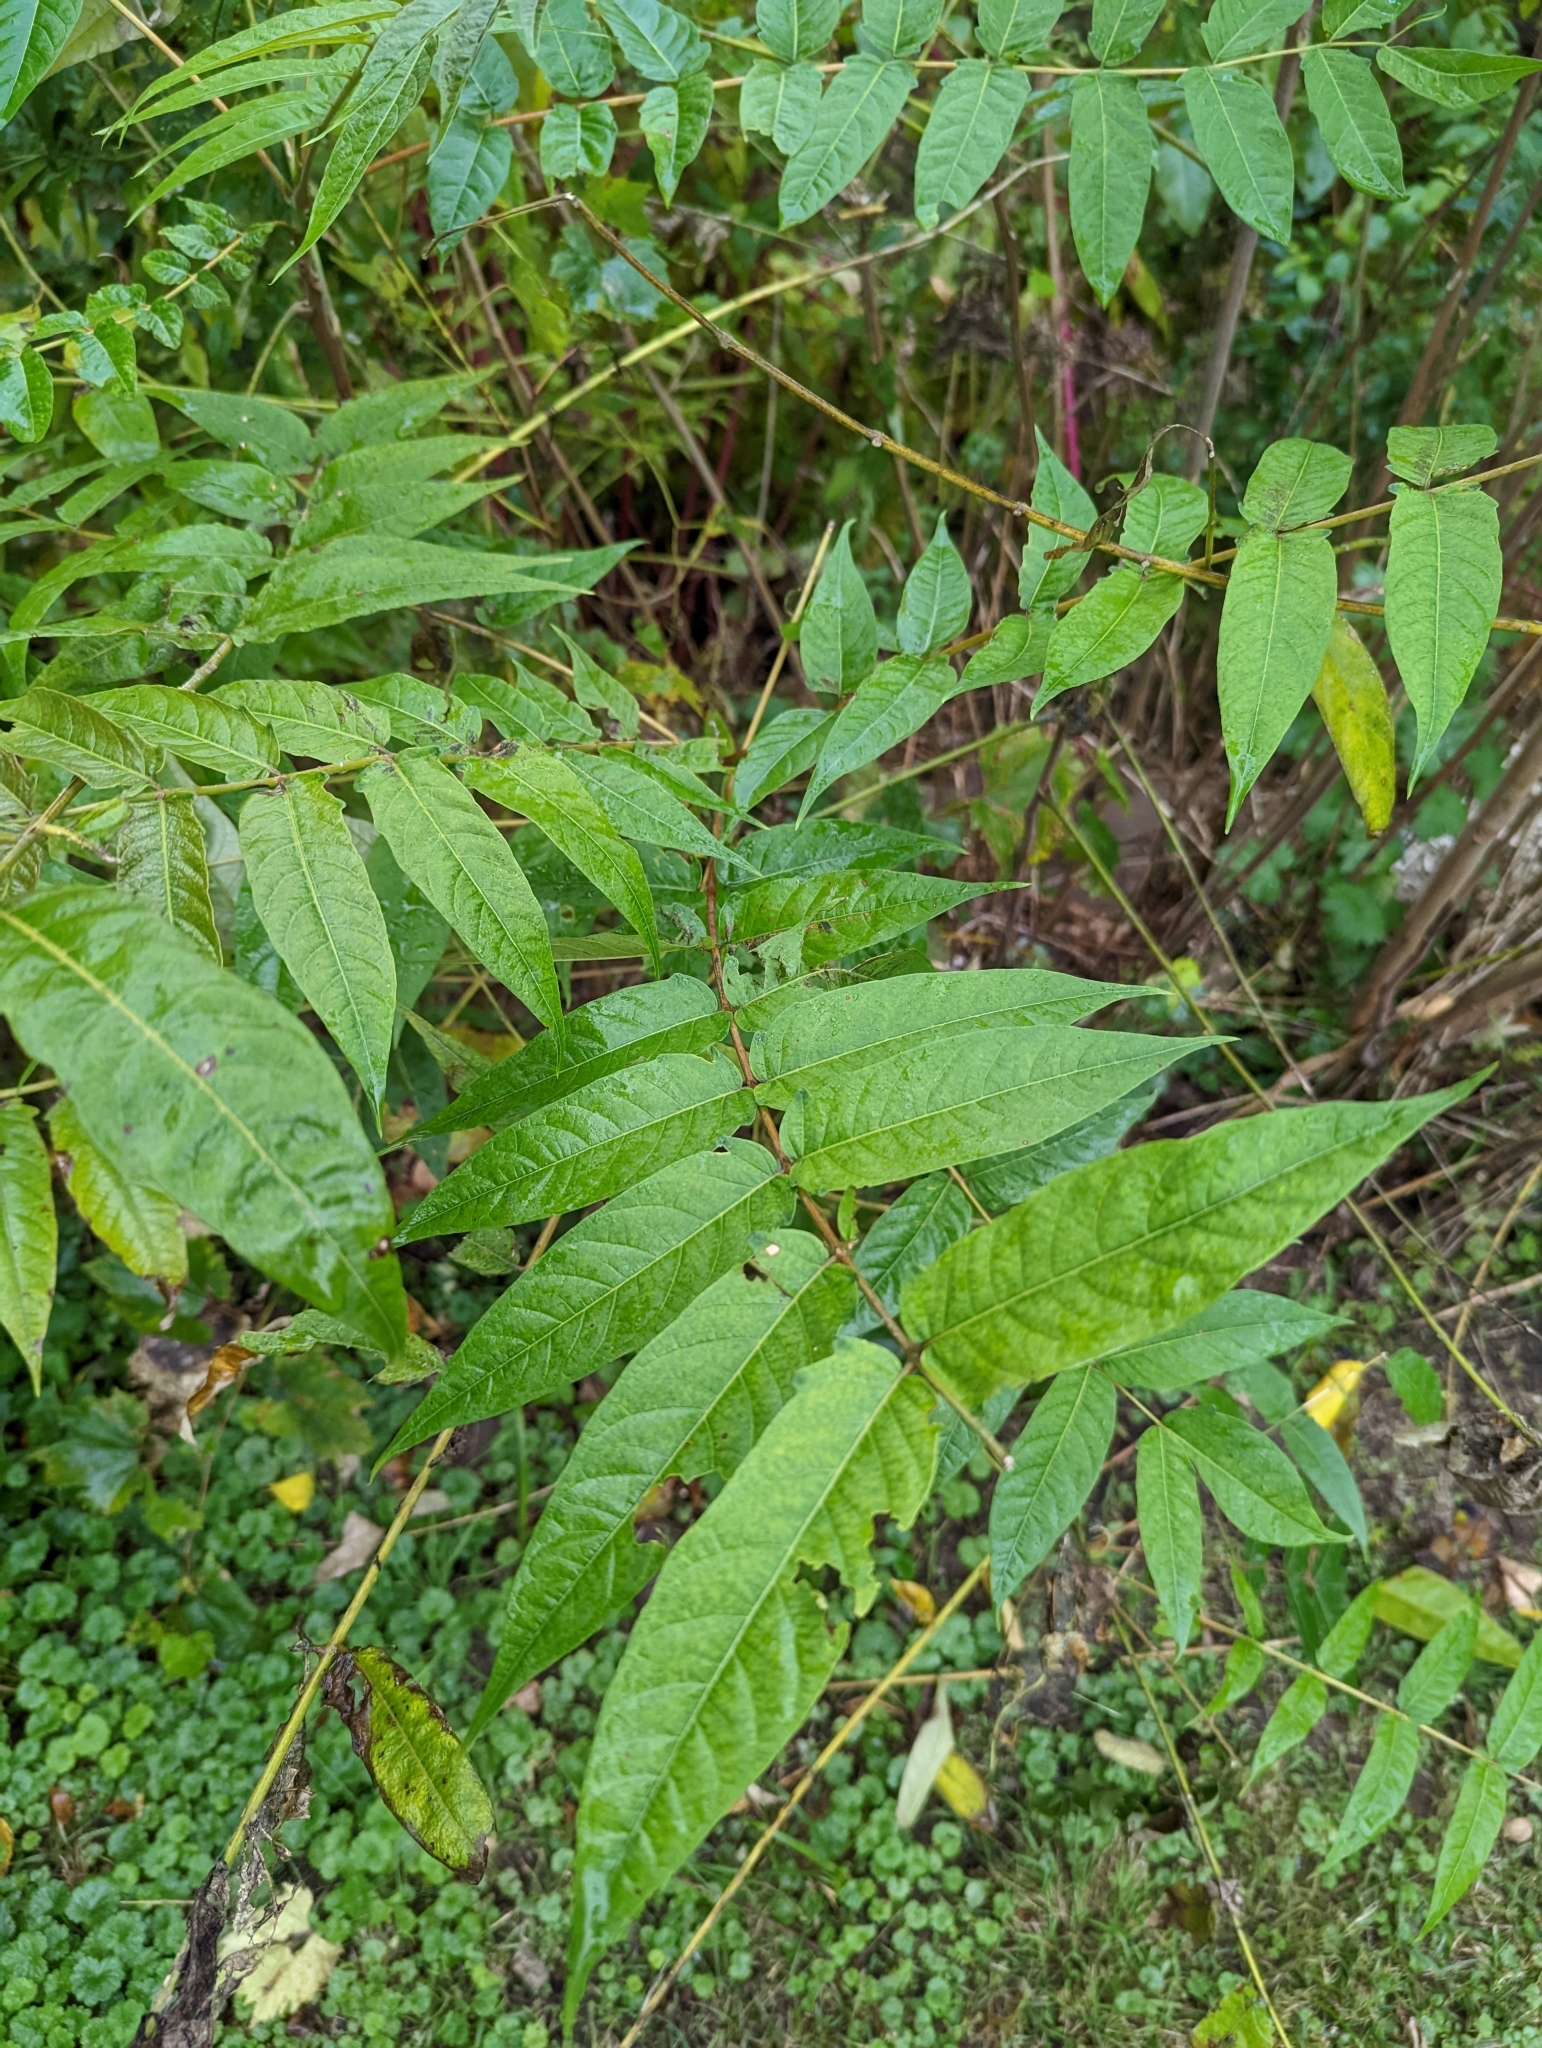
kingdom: Plantae
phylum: Tracheophyta
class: Magnoliopsida
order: Sapindales
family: Simaroubaceae
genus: Ailanthus
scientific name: Ailanthus altissima
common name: Tree-of-heaven
